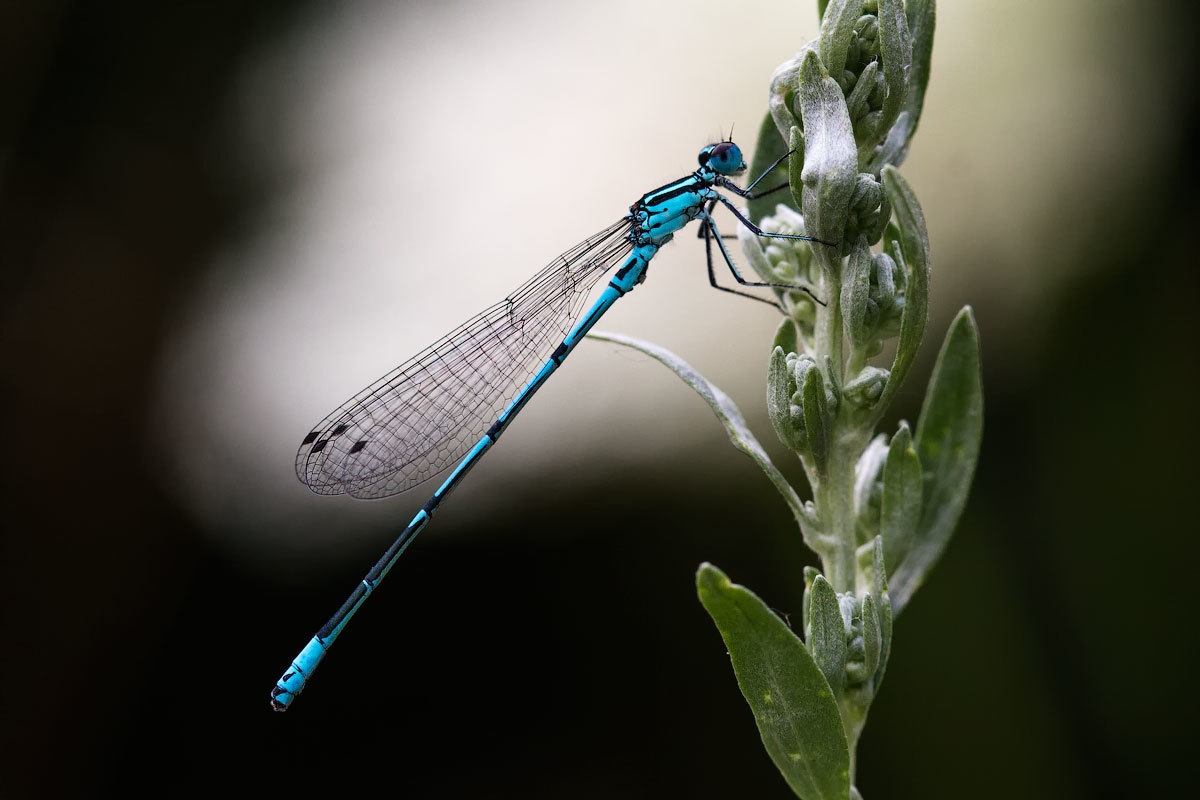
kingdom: Animalia
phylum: Arthropoda
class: Insecta
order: Odonata
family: Coenagrionidae
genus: Coenagrion
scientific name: Coenagrion puella
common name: Azure damselfly
